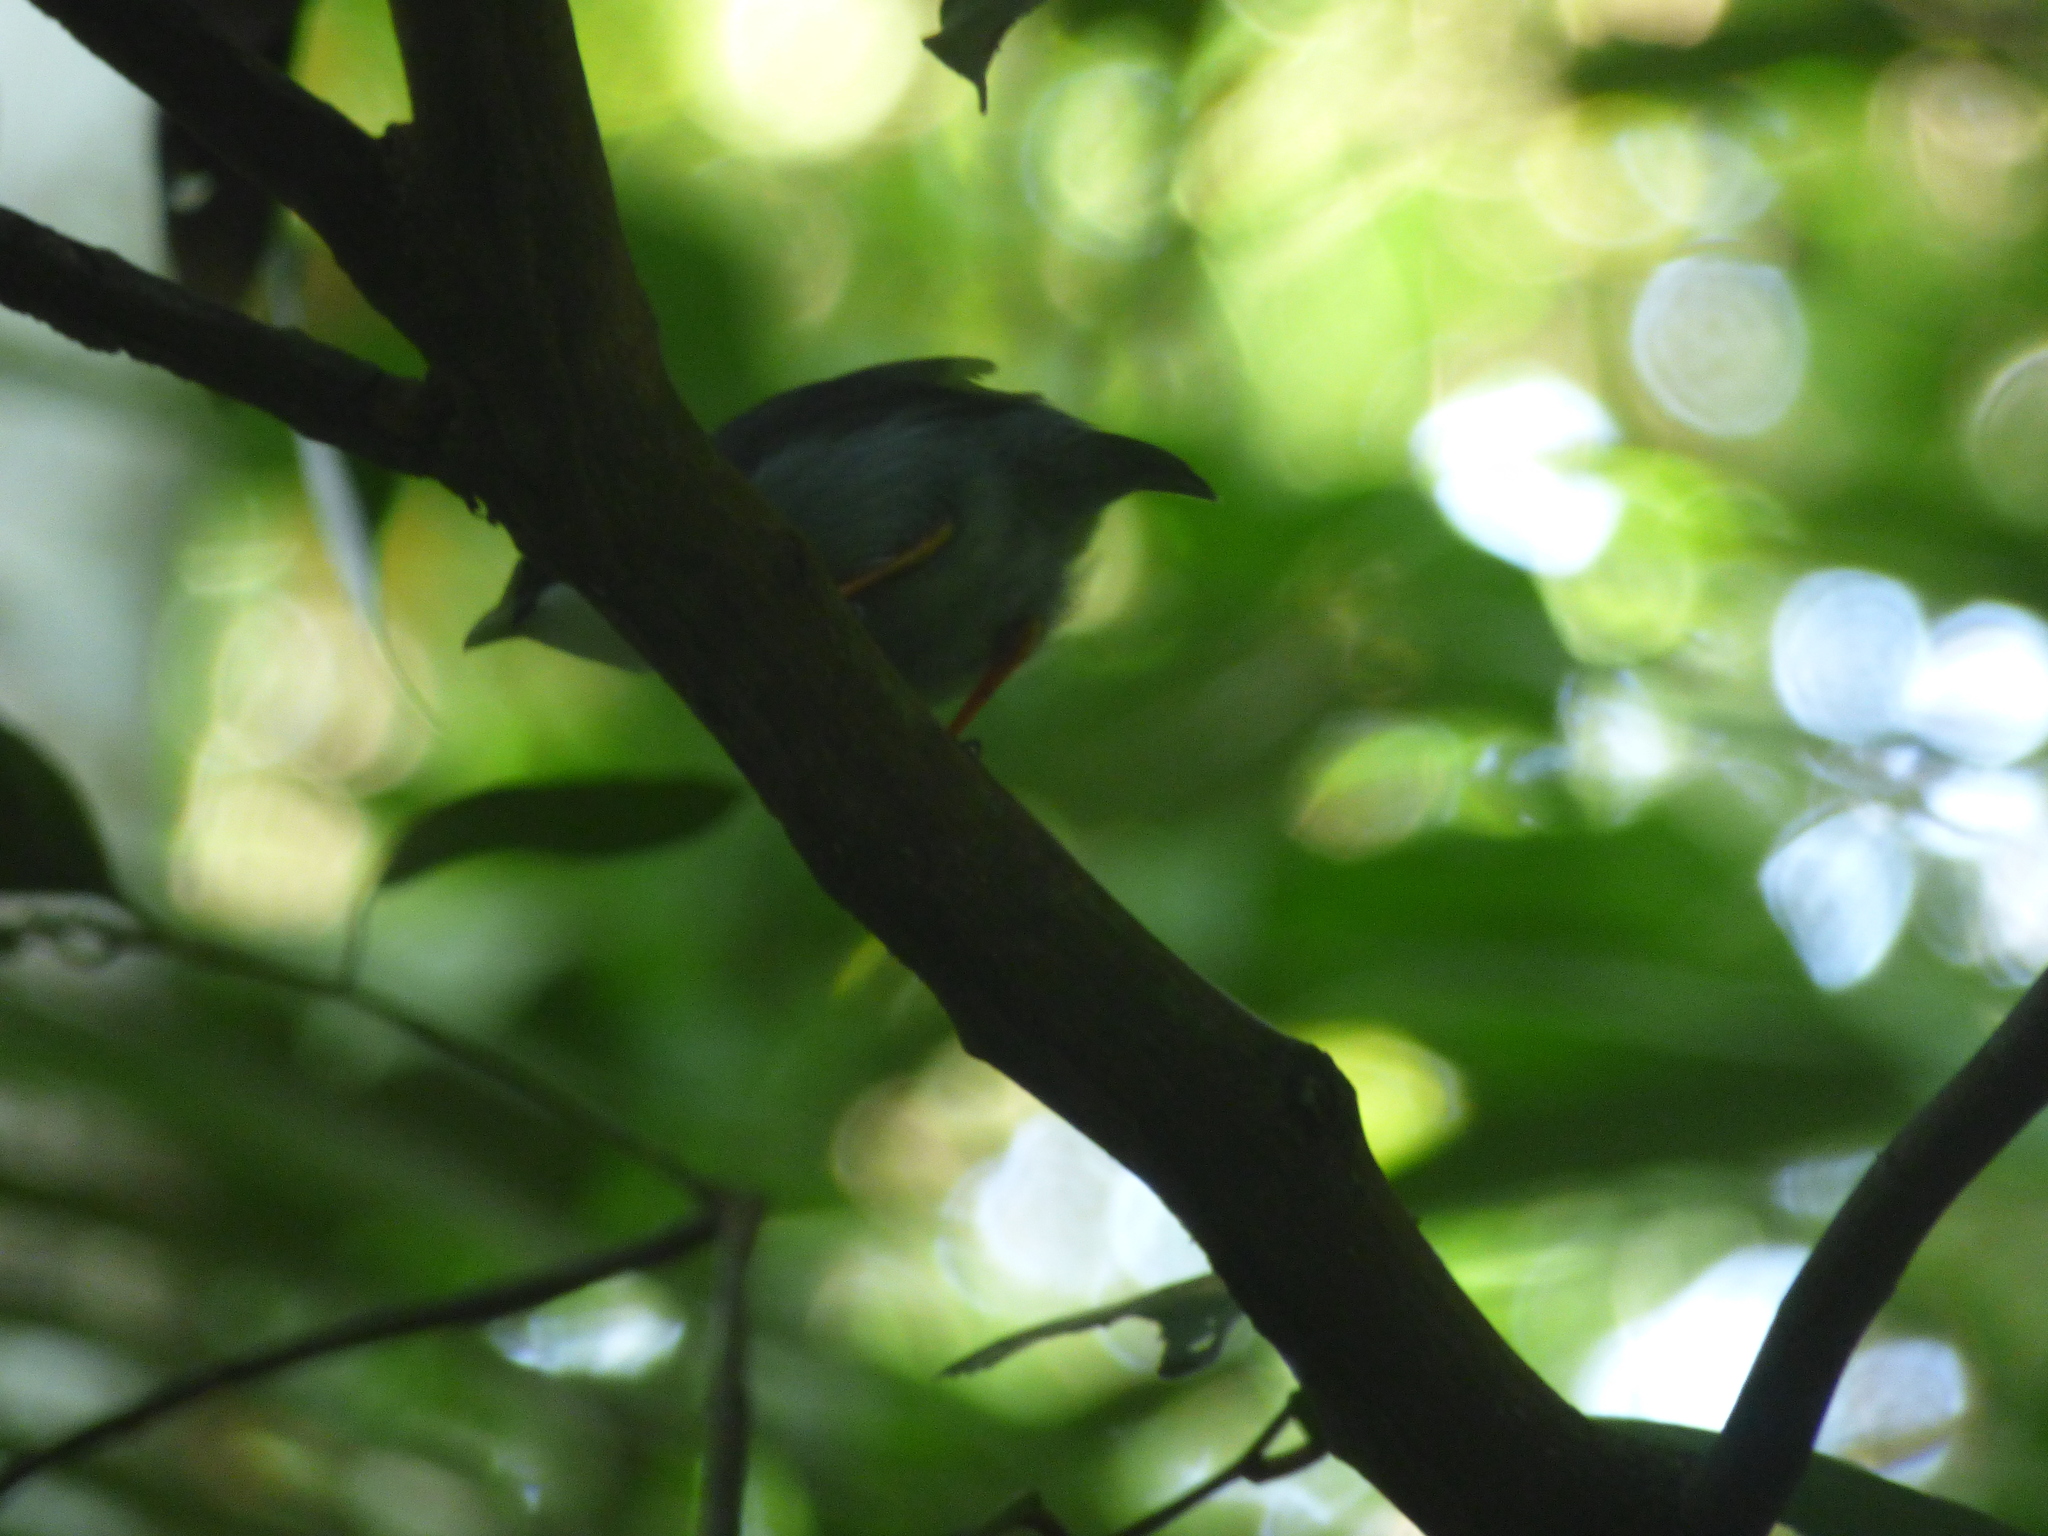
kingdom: Animalia
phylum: Chordata
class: Aves
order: Passeriformes
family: Pipridae
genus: Manacus
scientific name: Manacus manacus
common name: White-bearded manakin
